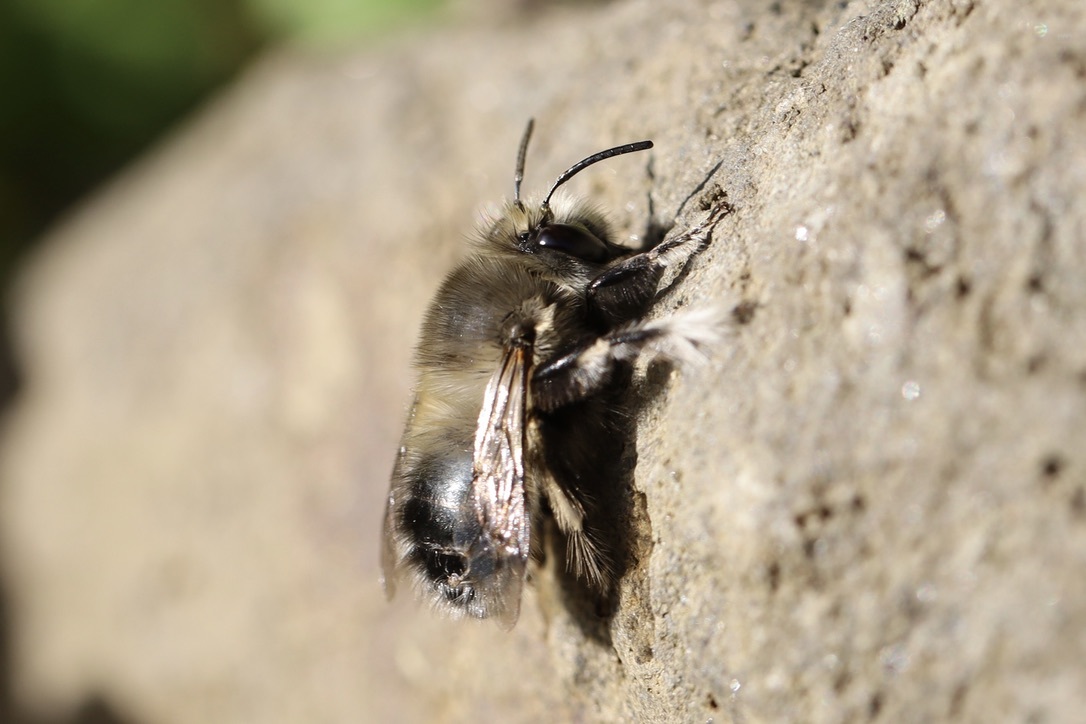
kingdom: Animalia
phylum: Arthropoda
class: Insecta
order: Hymenoptera
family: Apidae
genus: Anthophora
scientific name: Anthophora pacifica
